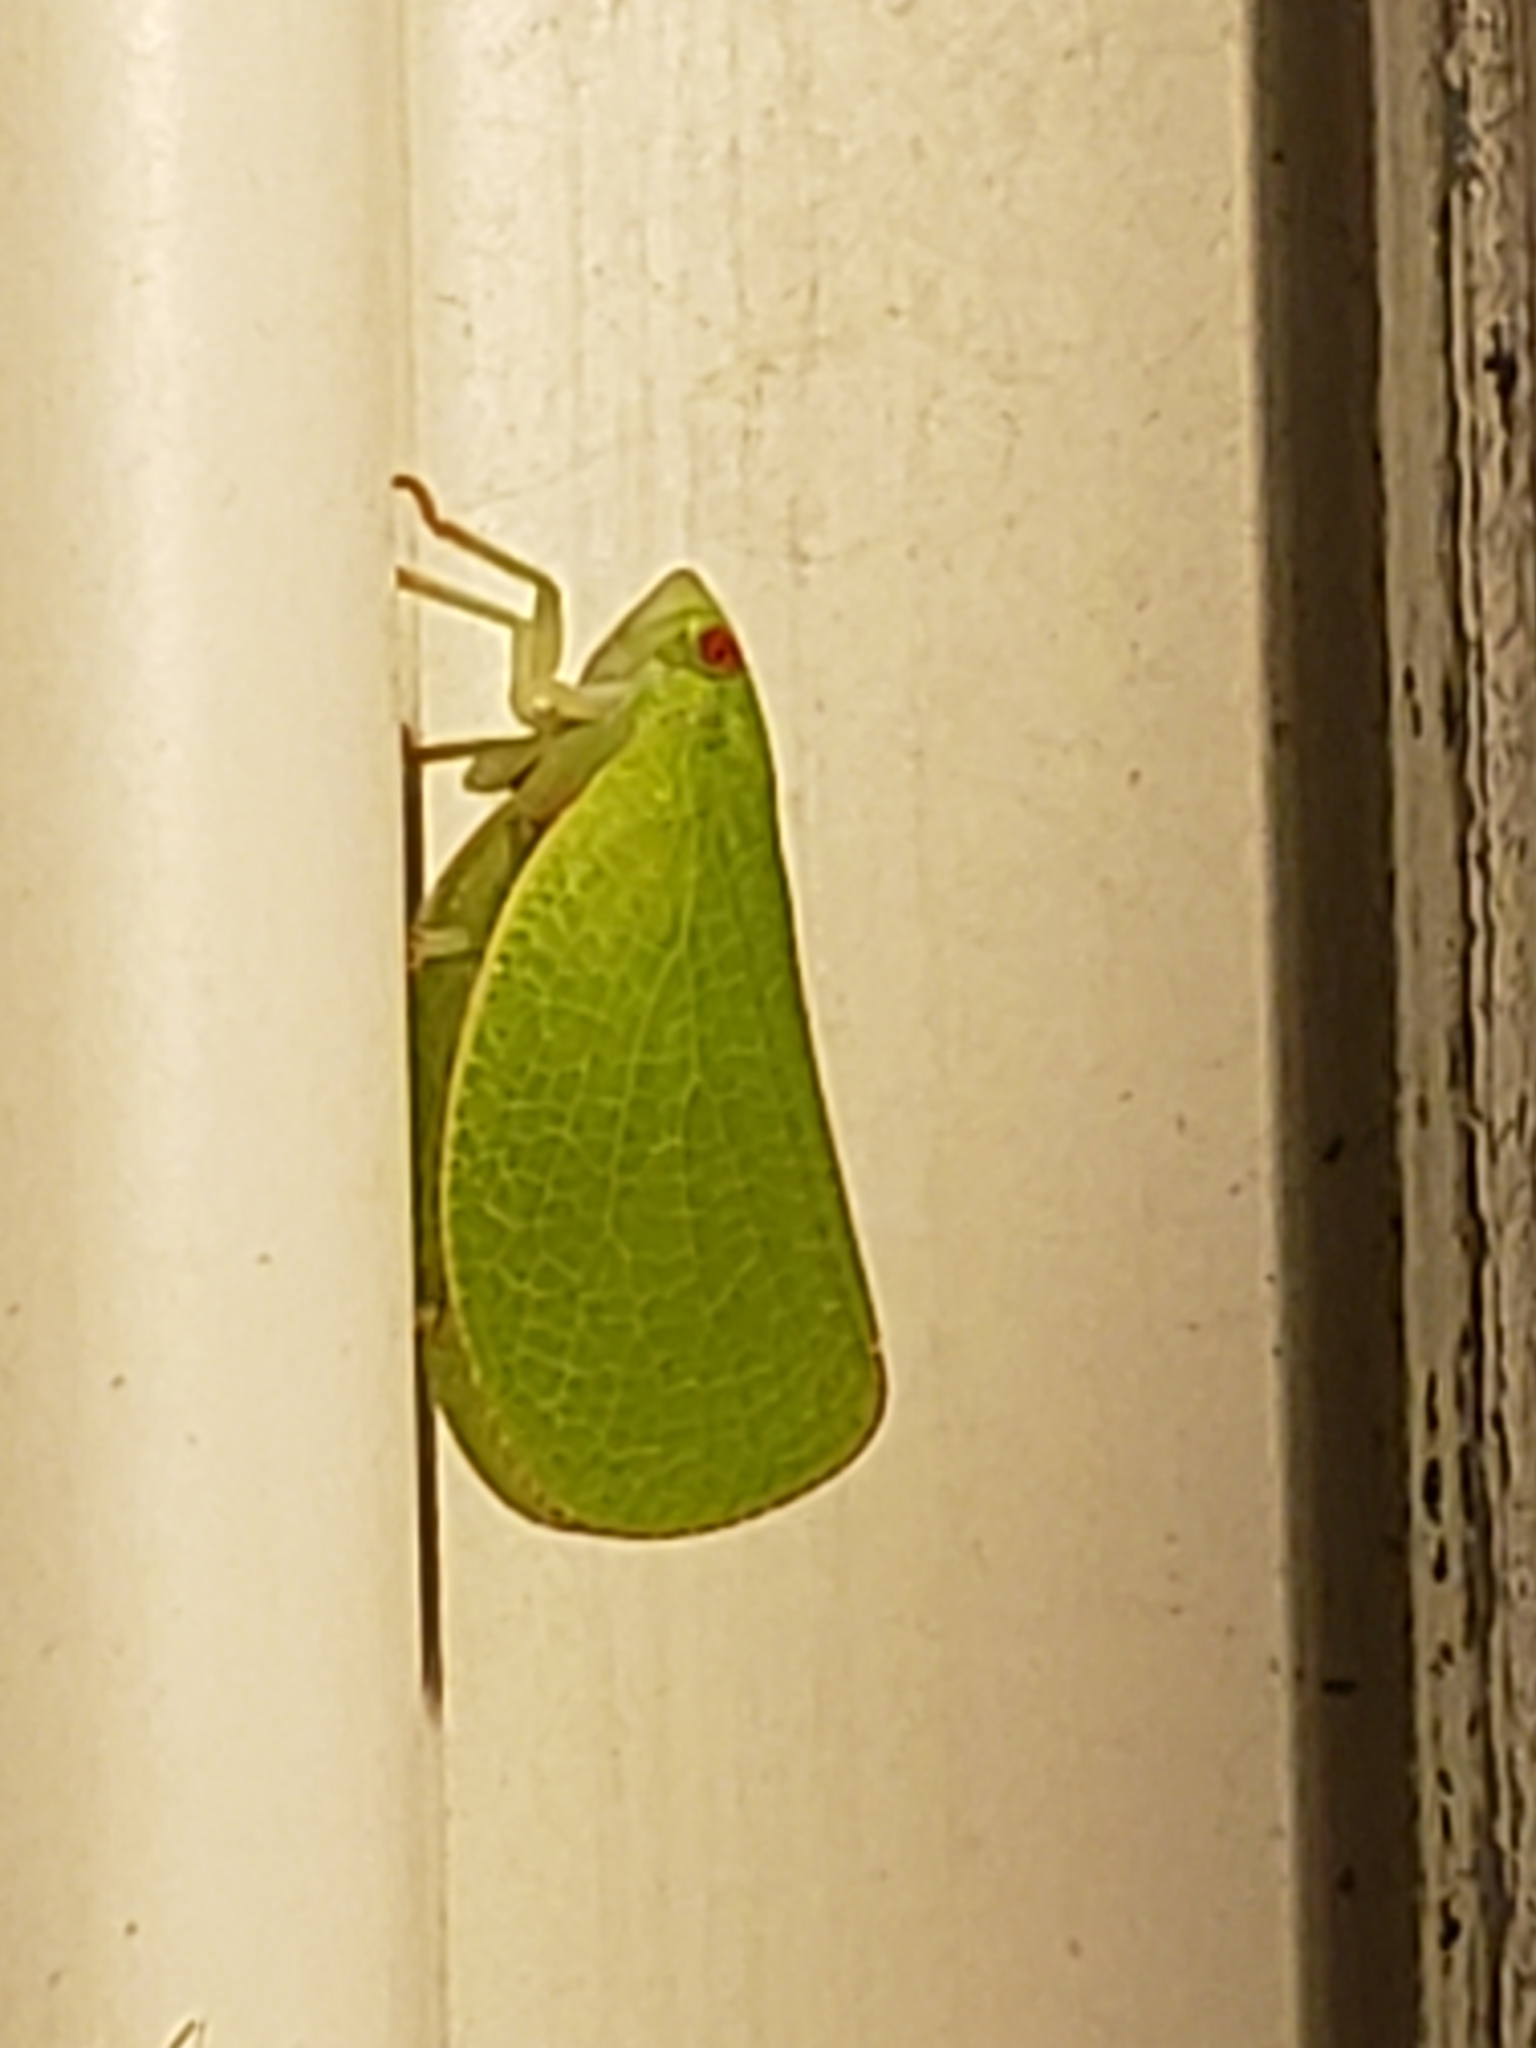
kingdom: Animalia
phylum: Arthropoda
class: Insecta
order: Hemiptera
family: Acanaloniidae
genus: Acanalonia
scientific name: Acanalonia conica
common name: Green cone-headed planthopper
